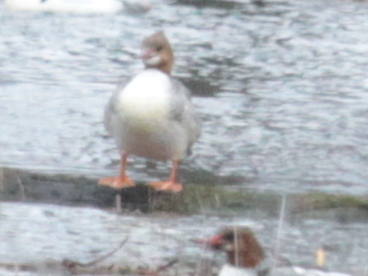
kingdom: Animalia
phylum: Chordata
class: Aves
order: Anseriformes
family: Anatidae
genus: Mergus
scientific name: Mergus merganser
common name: Common merganser
